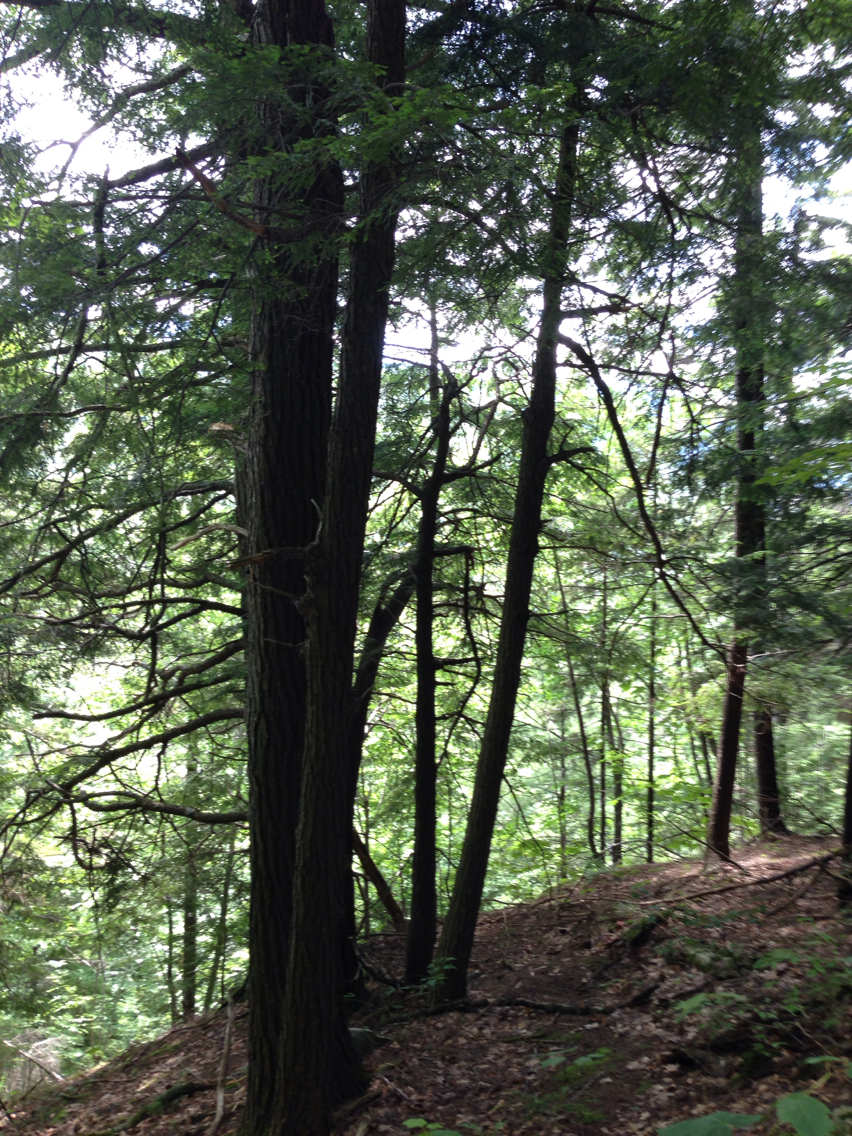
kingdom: Plantae
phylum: Tracheophyta
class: Pinopsida
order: Pinales
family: Pinaceae
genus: Tsuga
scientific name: Tsuga canadensis
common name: Eastern hemlock
